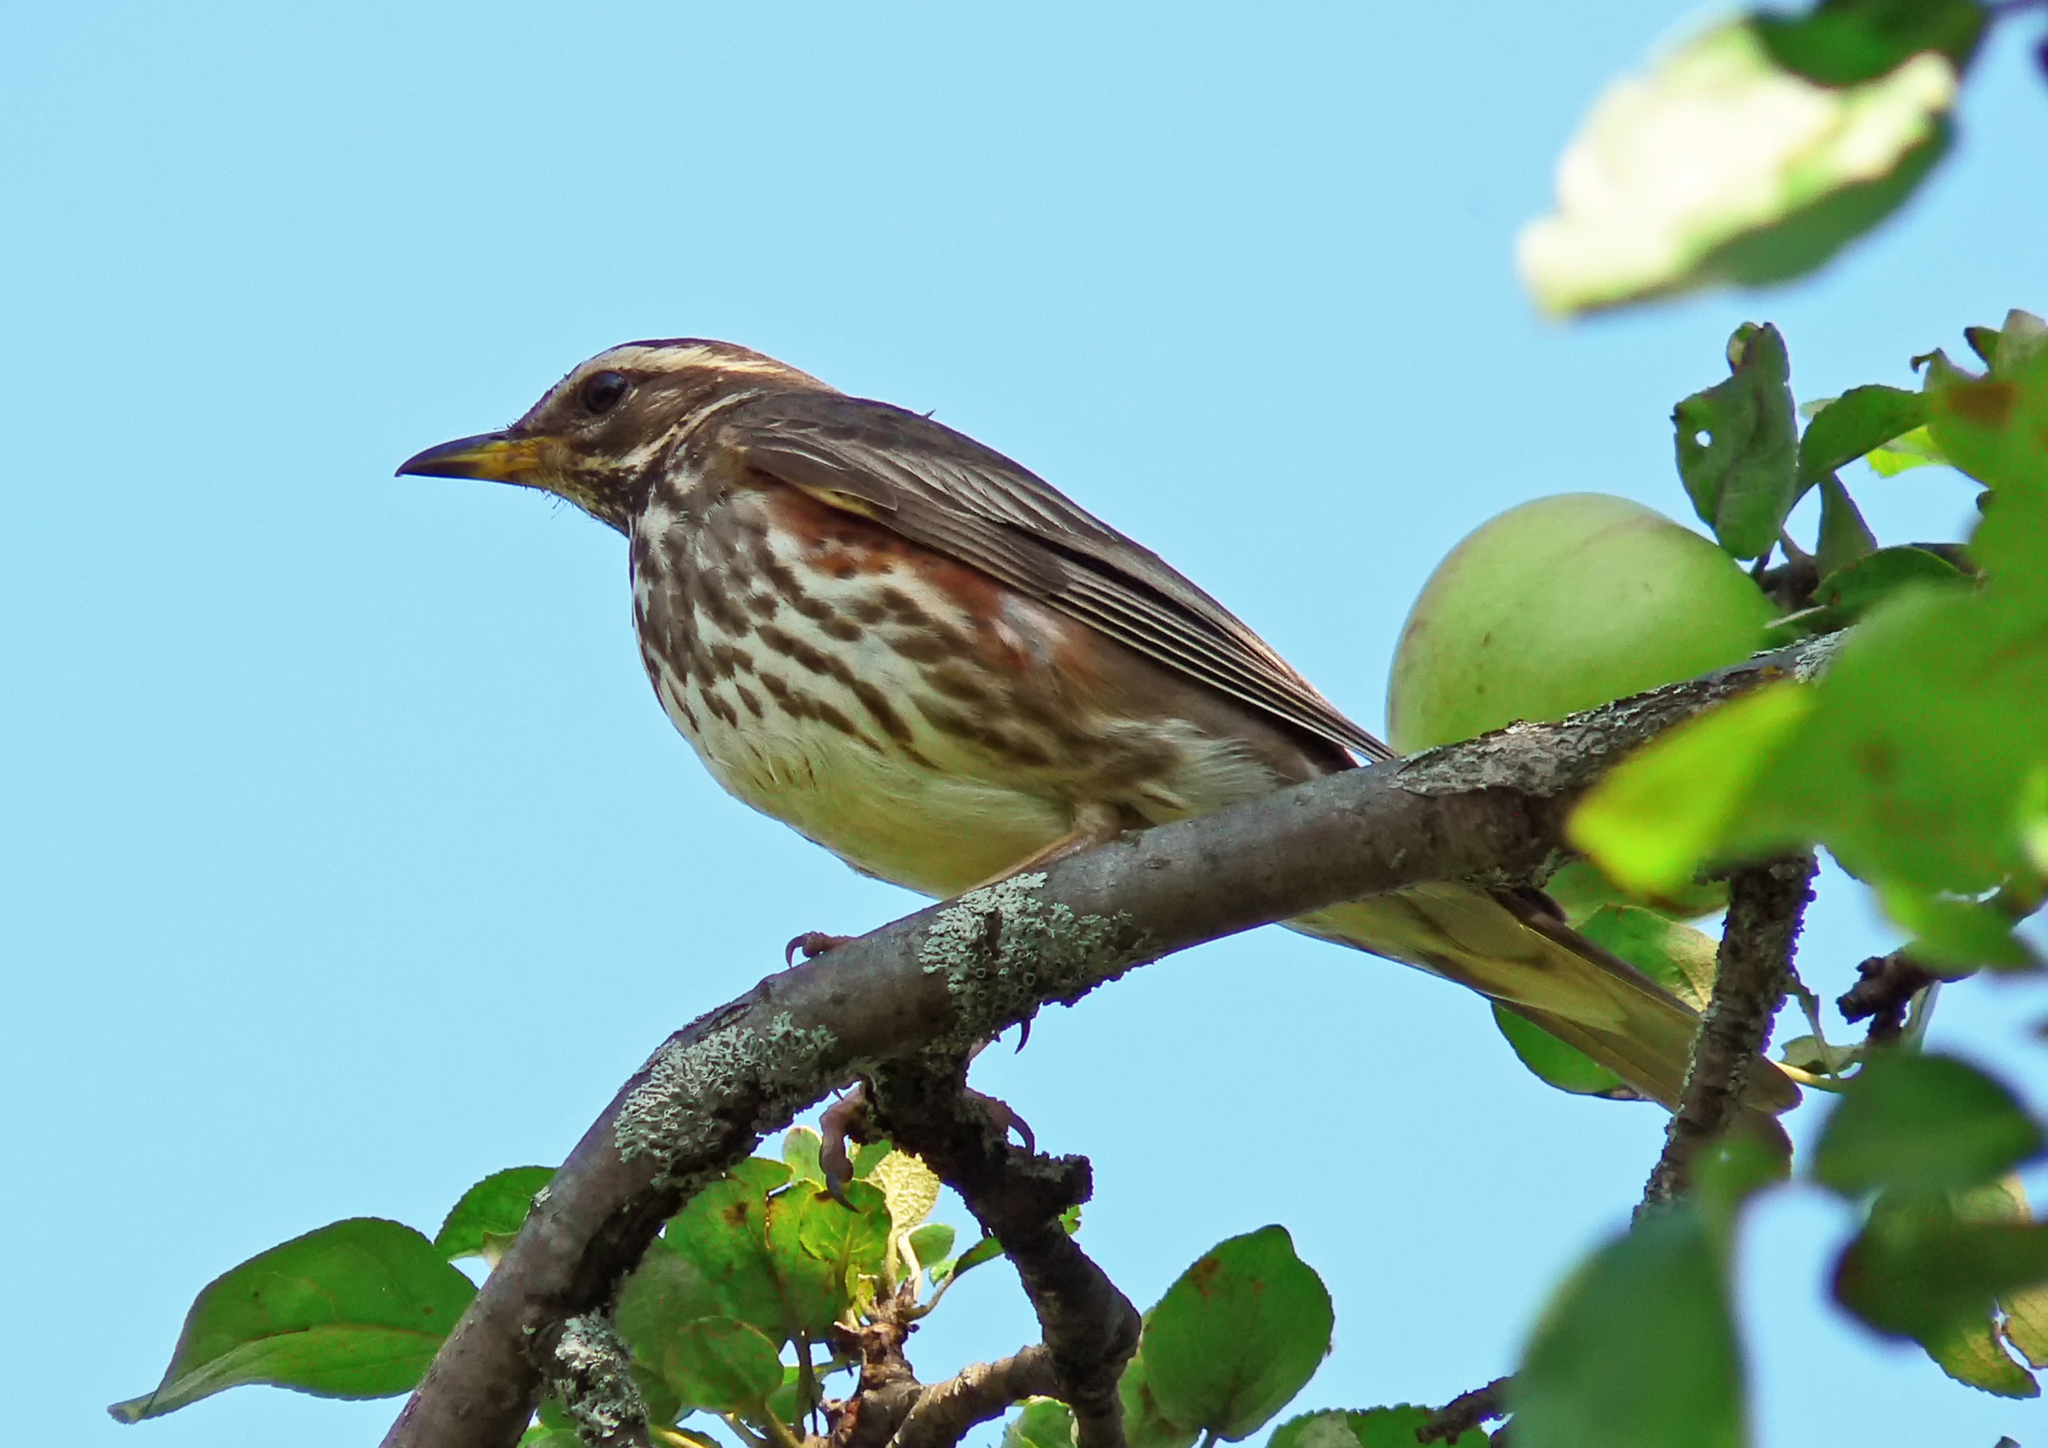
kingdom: Animalia
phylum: Chordata
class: Aves
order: Passeriformes
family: Turdidae
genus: Turdus
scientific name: Turdus iliacus
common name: Redwing
